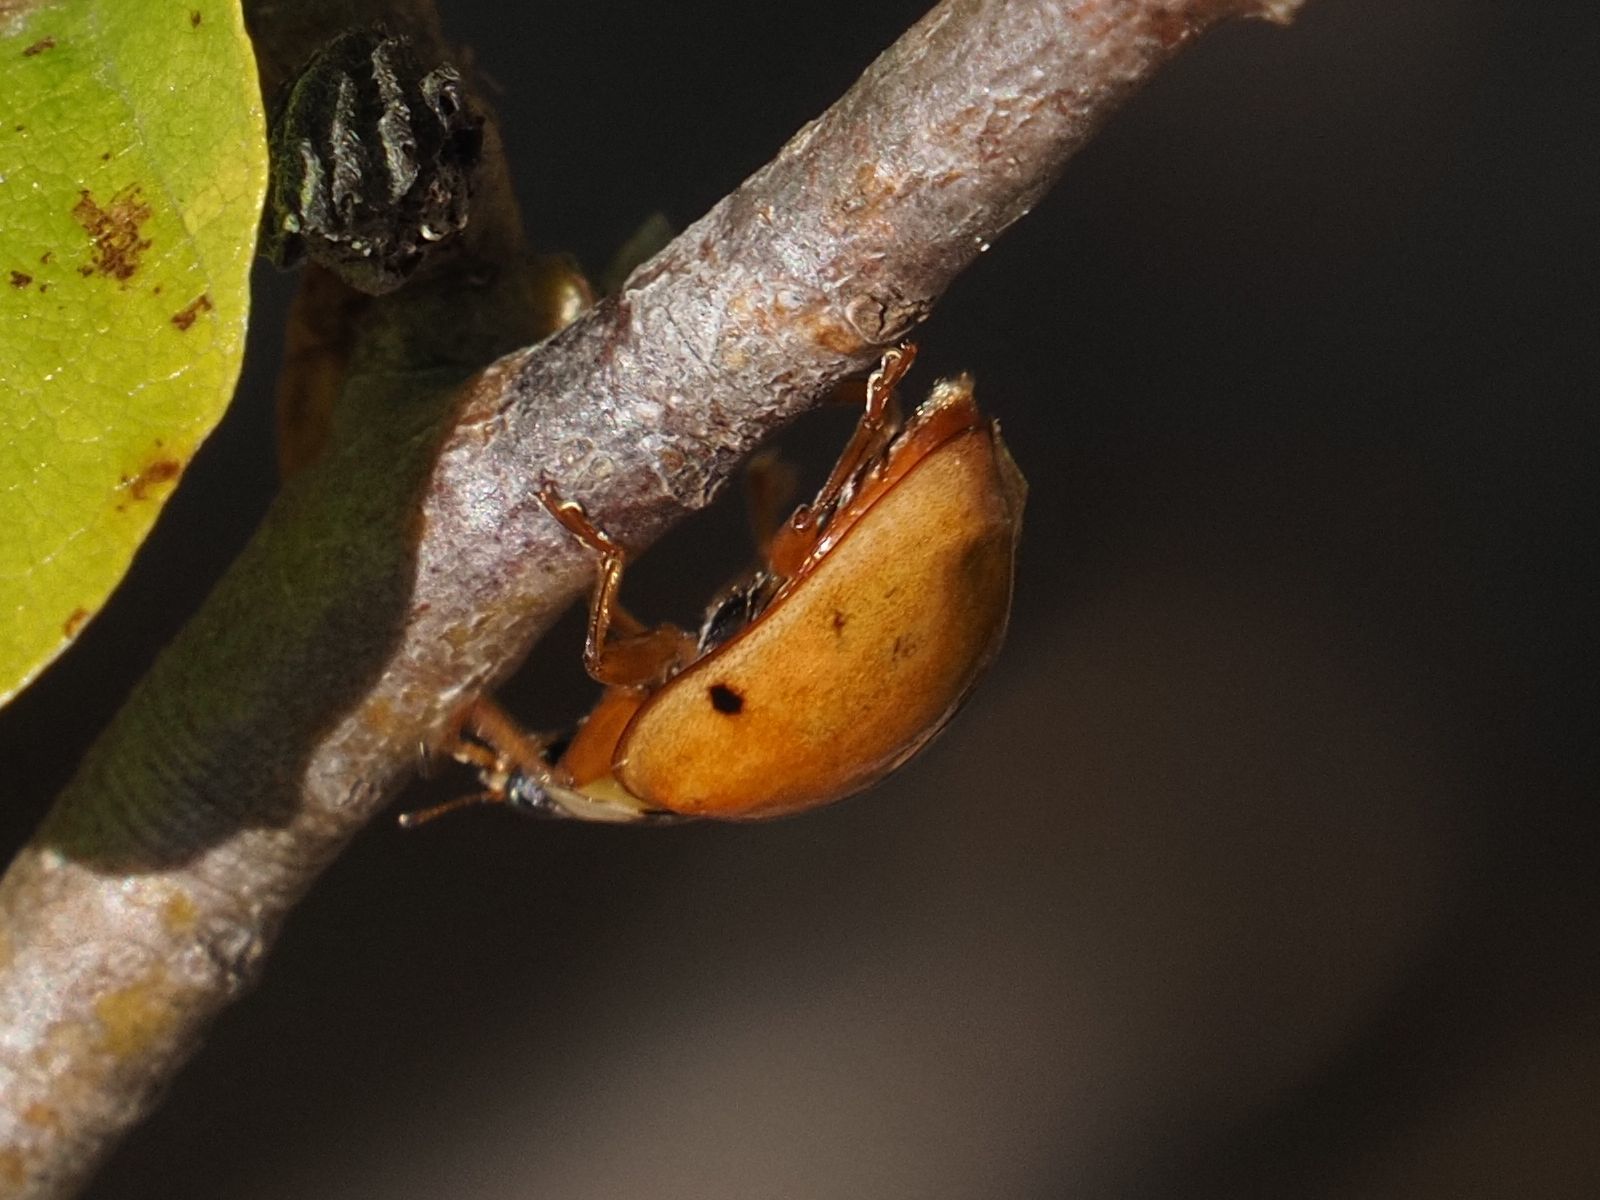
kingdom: Animalia
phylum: Arthropoda
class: Insecta
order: Coleoptera
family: Coccinellidae
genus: Harmonia
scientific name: Harmonia axyridis
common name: Harlequin ladybird
